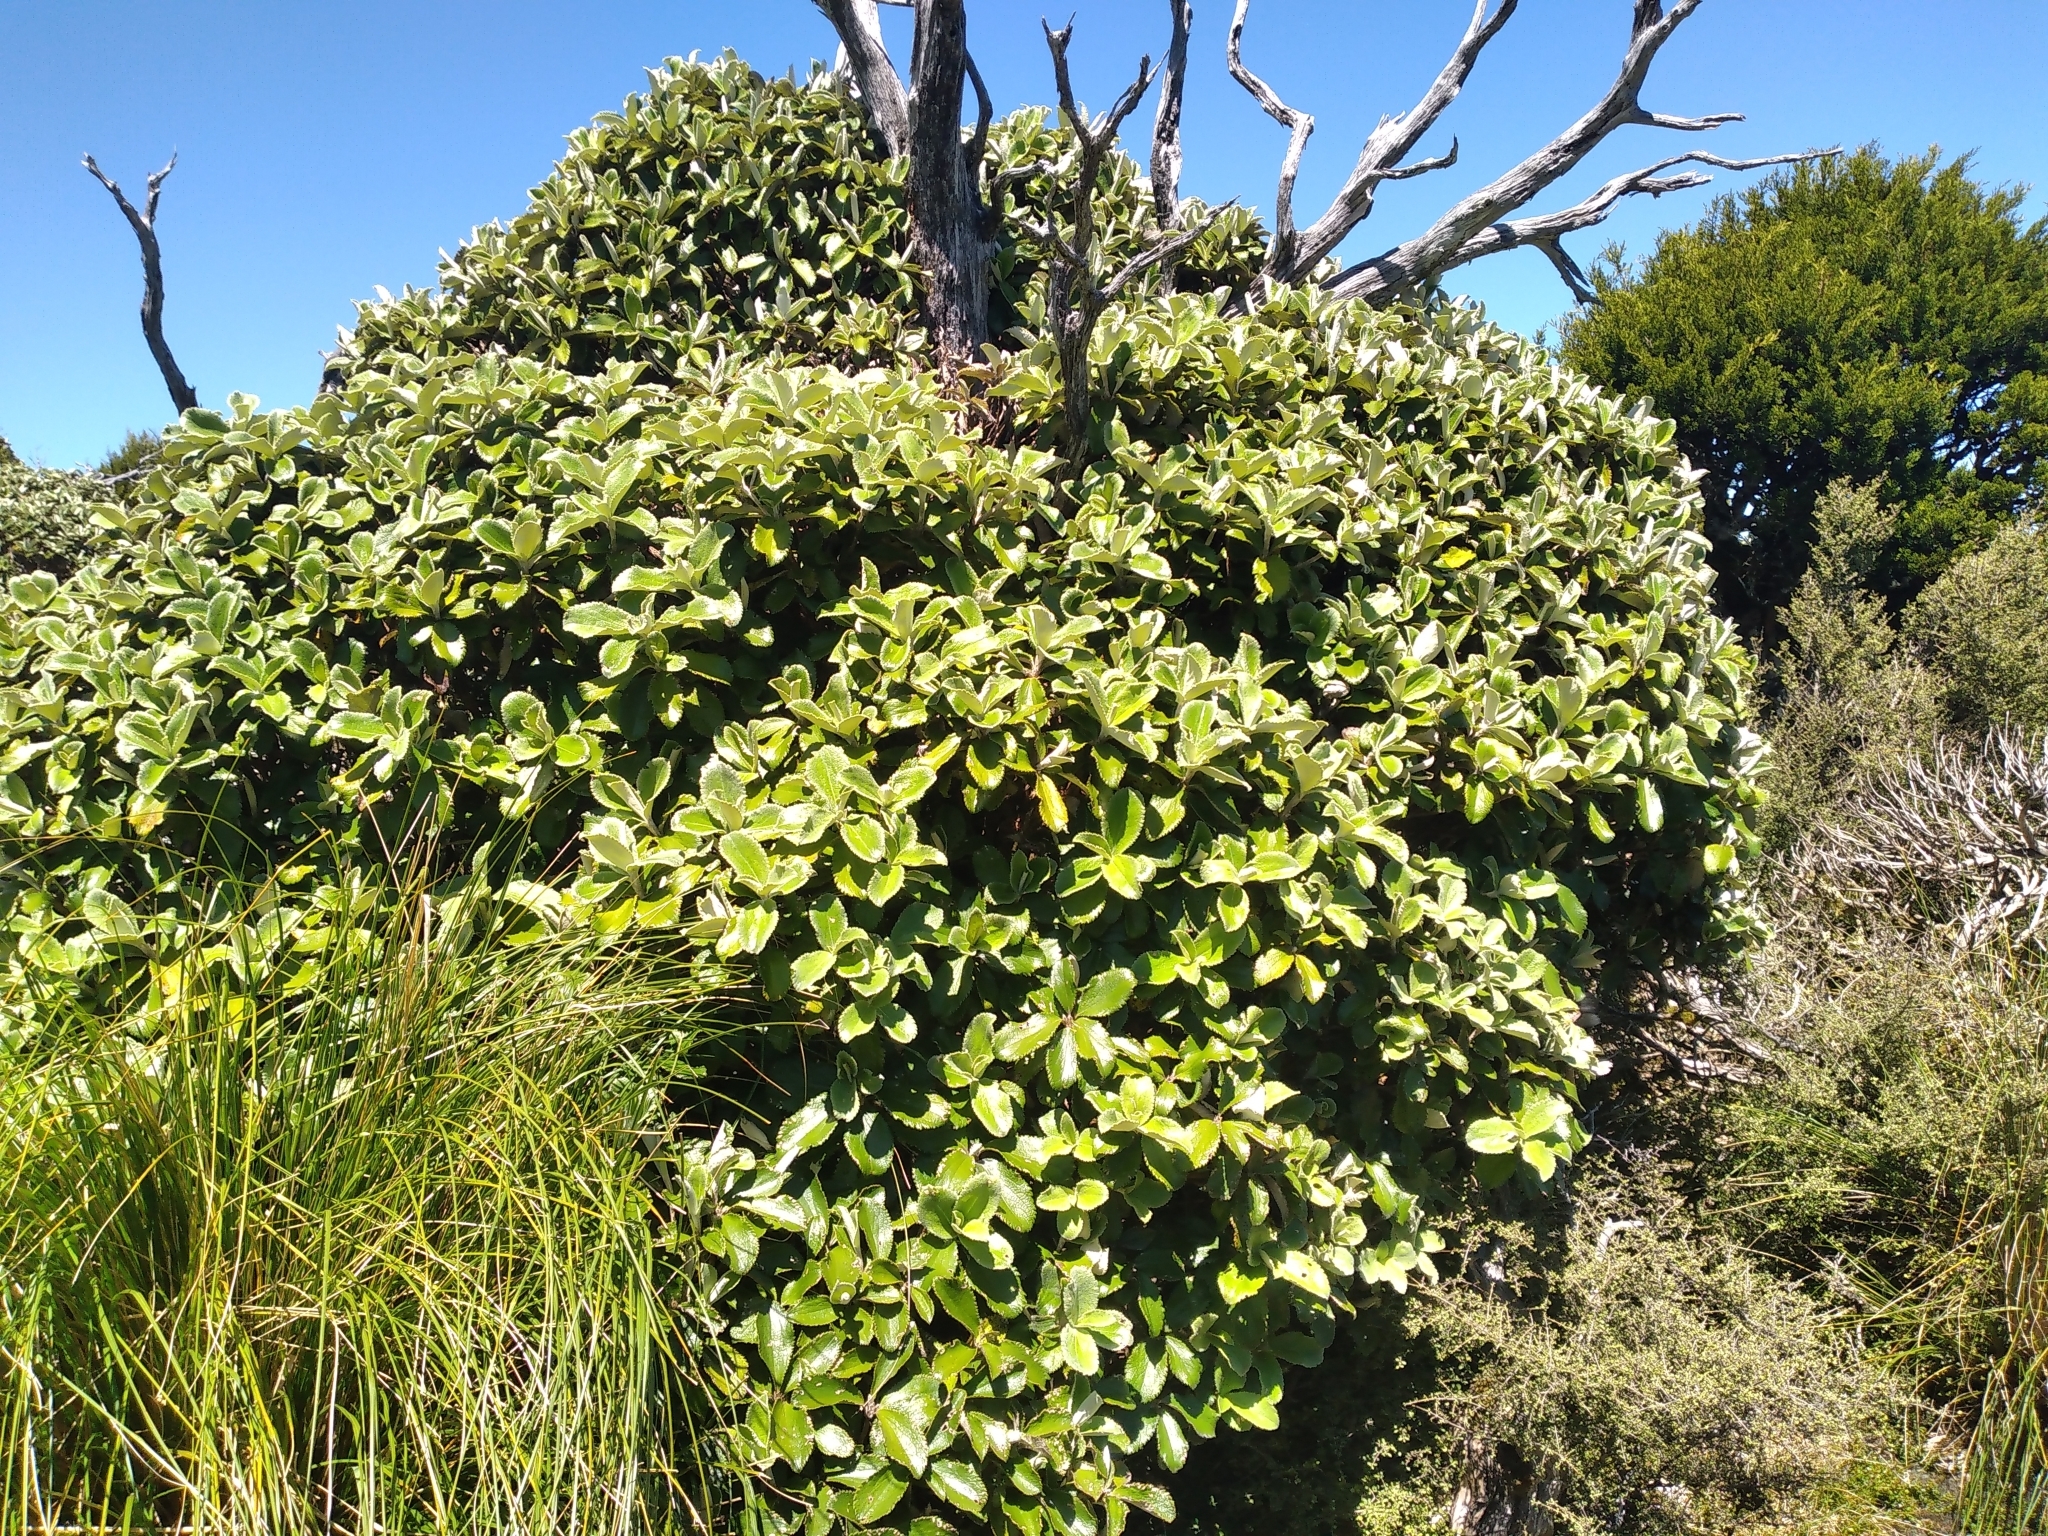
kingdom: Plantae
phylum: Tracheophyta
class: Magnoliopsida
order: Asterales
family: Asteraceae
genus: Macrolearia
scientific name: Macrolearia colensoi
